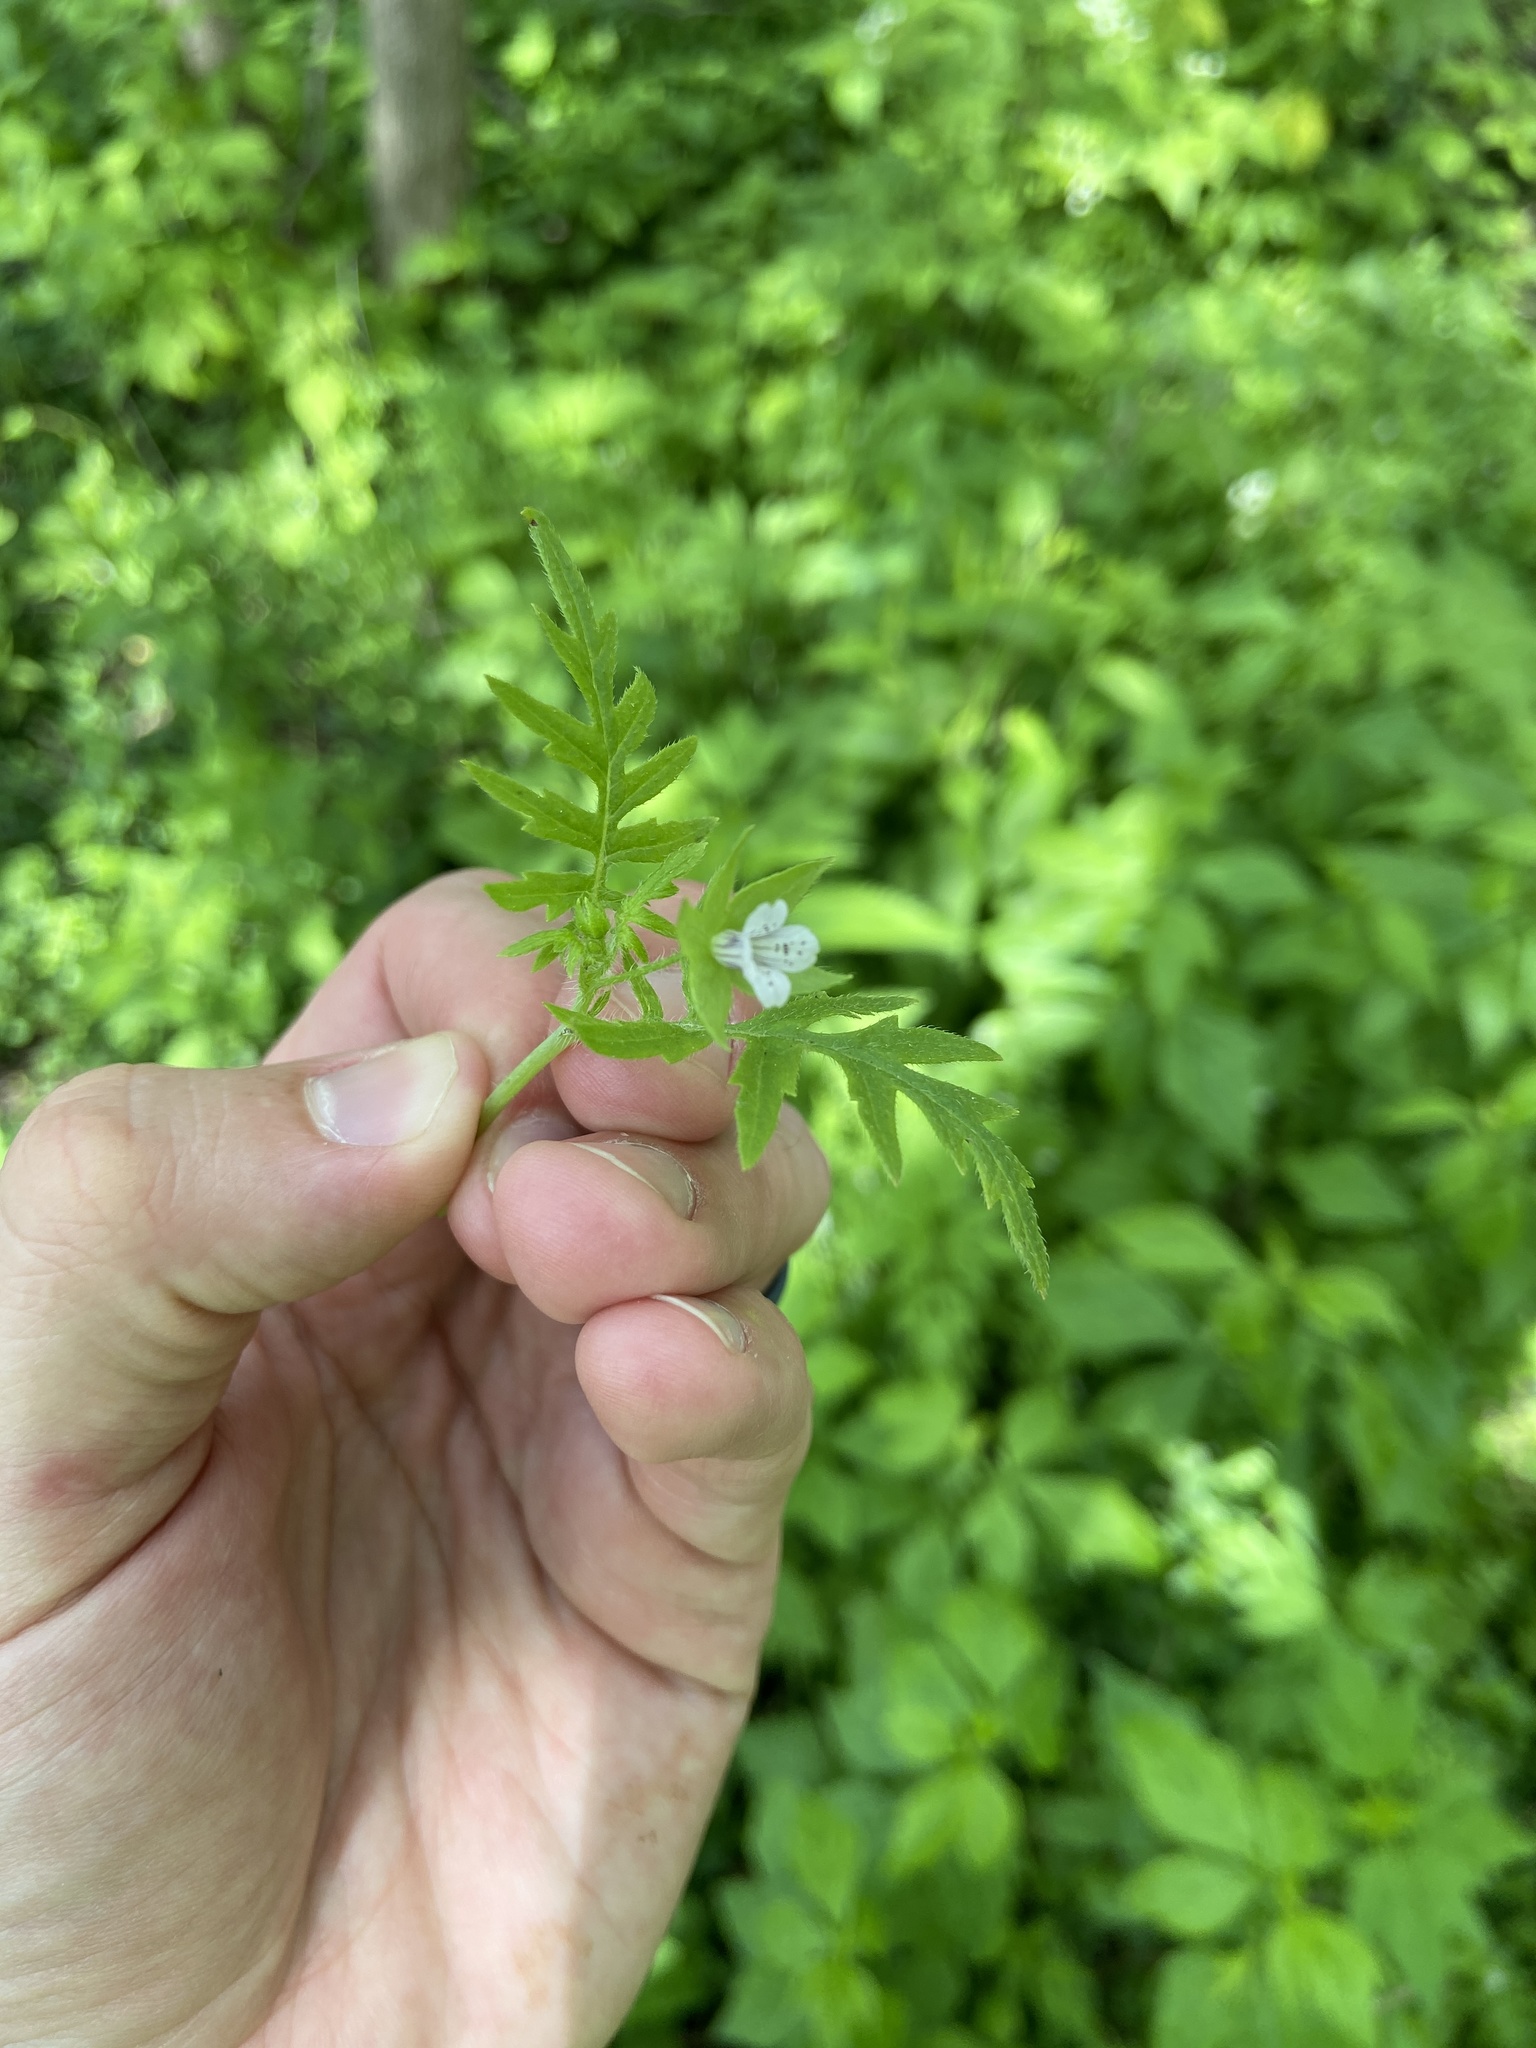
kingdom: Plantae
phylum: Tracheophyta
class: Magnoliopsida
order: Boraginales
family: Hydrophyllaceae
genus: Ellisia
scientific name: Ellisia nyctelea
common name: Aunt lucy
